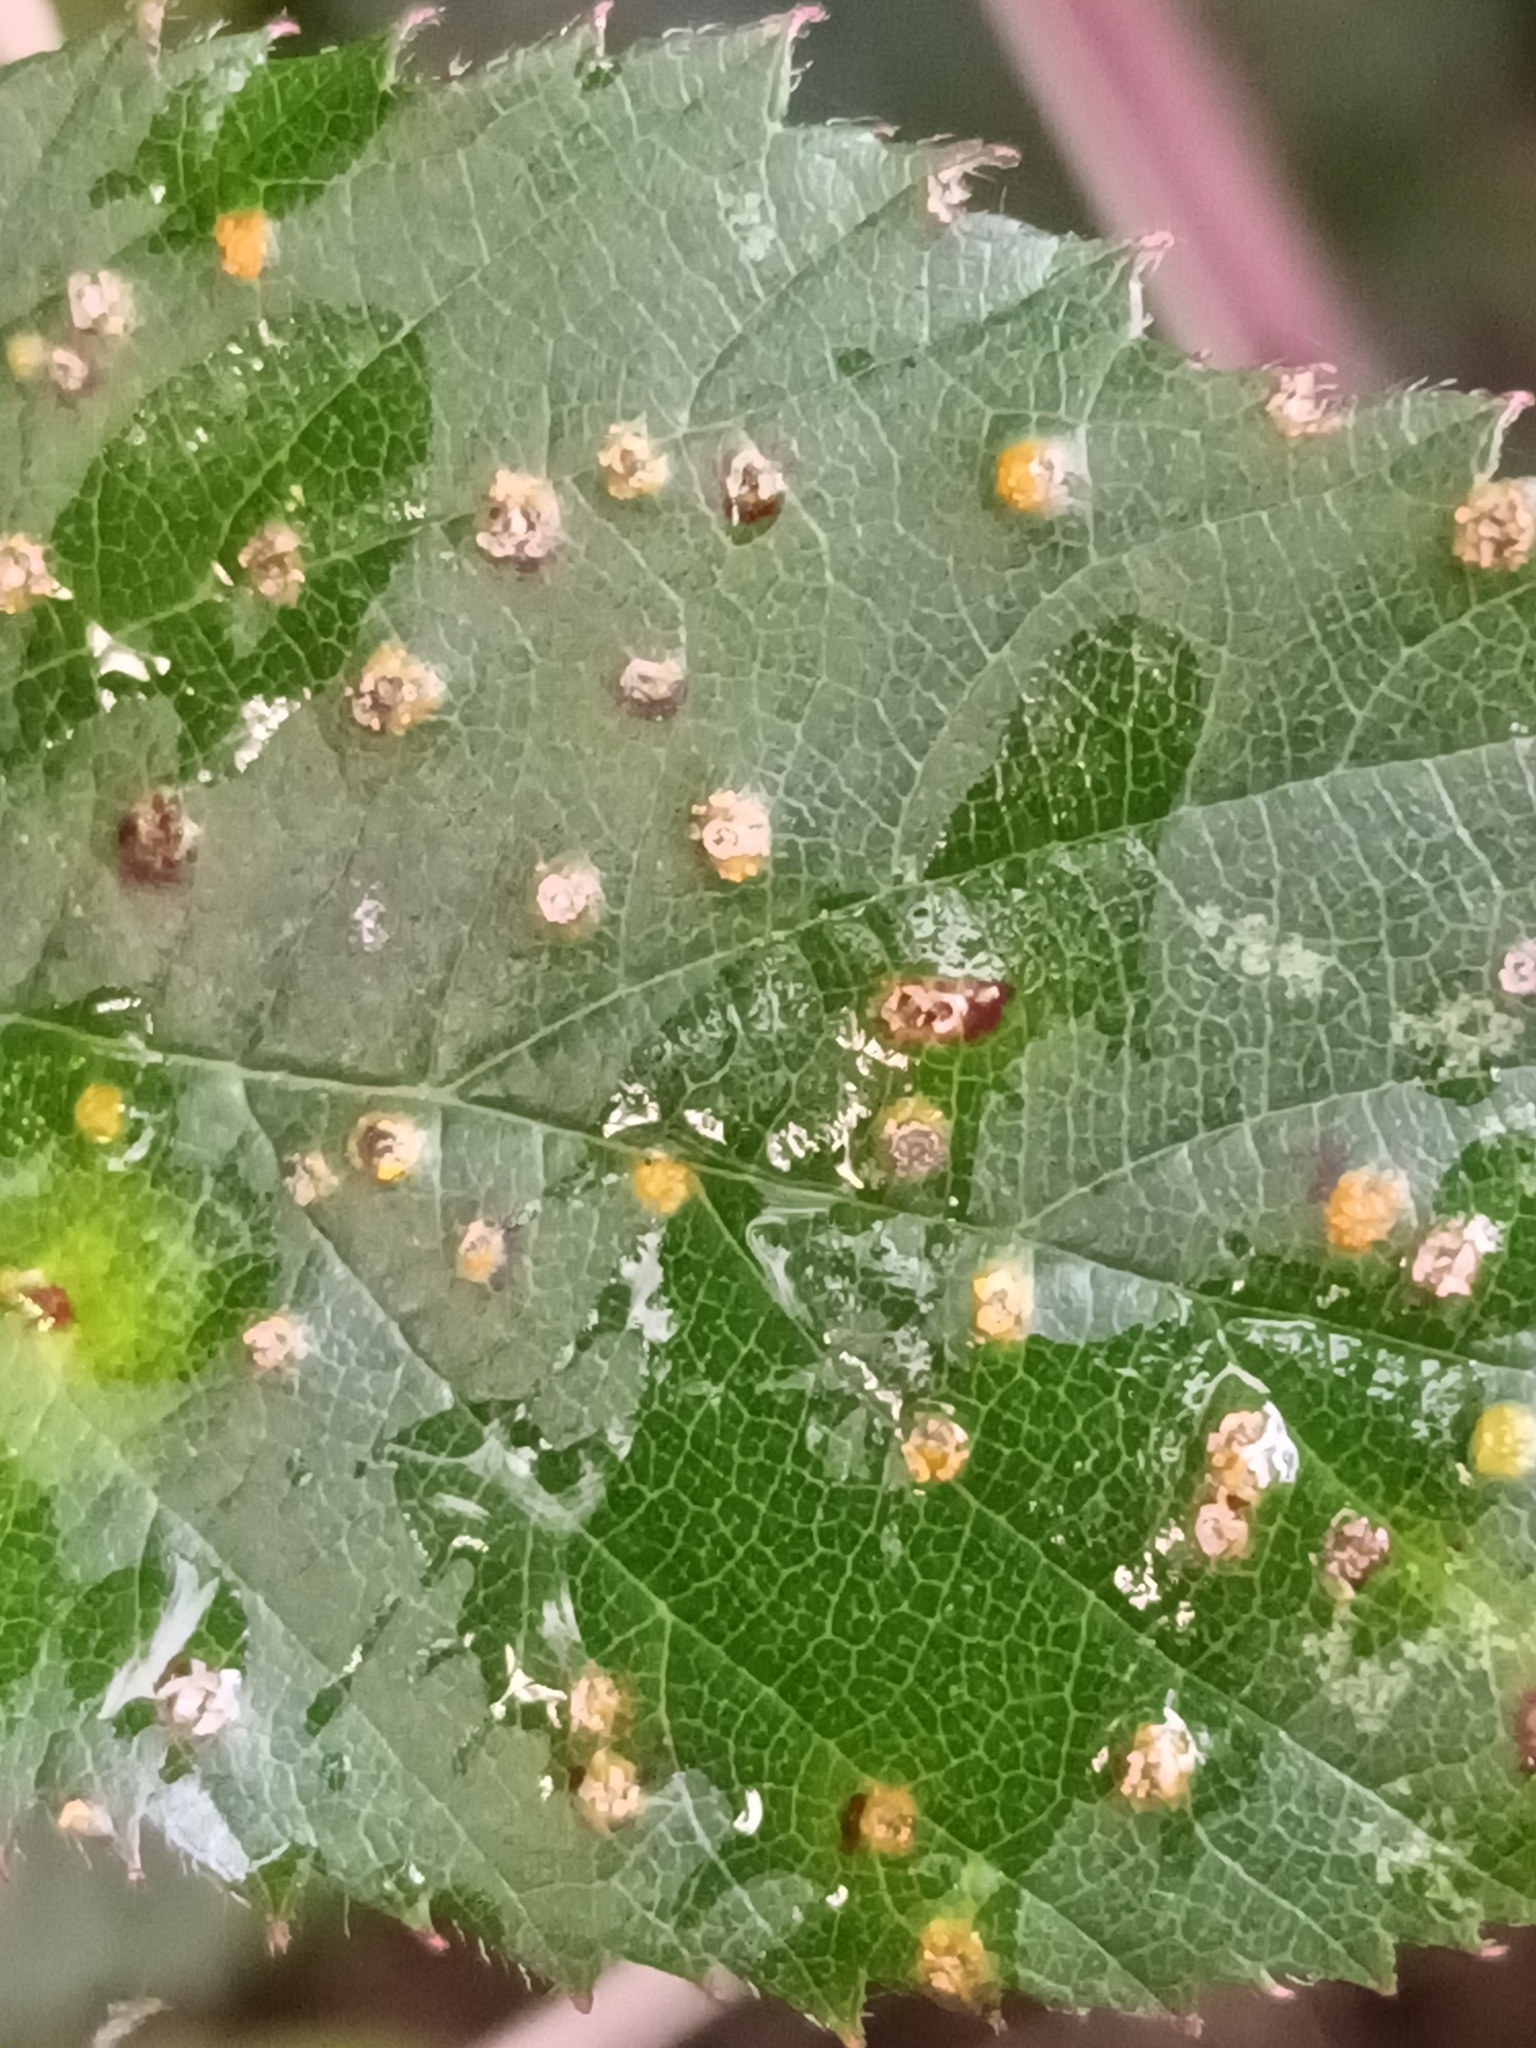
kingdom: Fungi
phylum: Basidiomycota
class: Pucciniomycetes
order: Pucciniales
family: Phragmidiaceae
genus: Kuehneola
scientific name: Kuehneola uredinis
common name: Bramble stem rust
